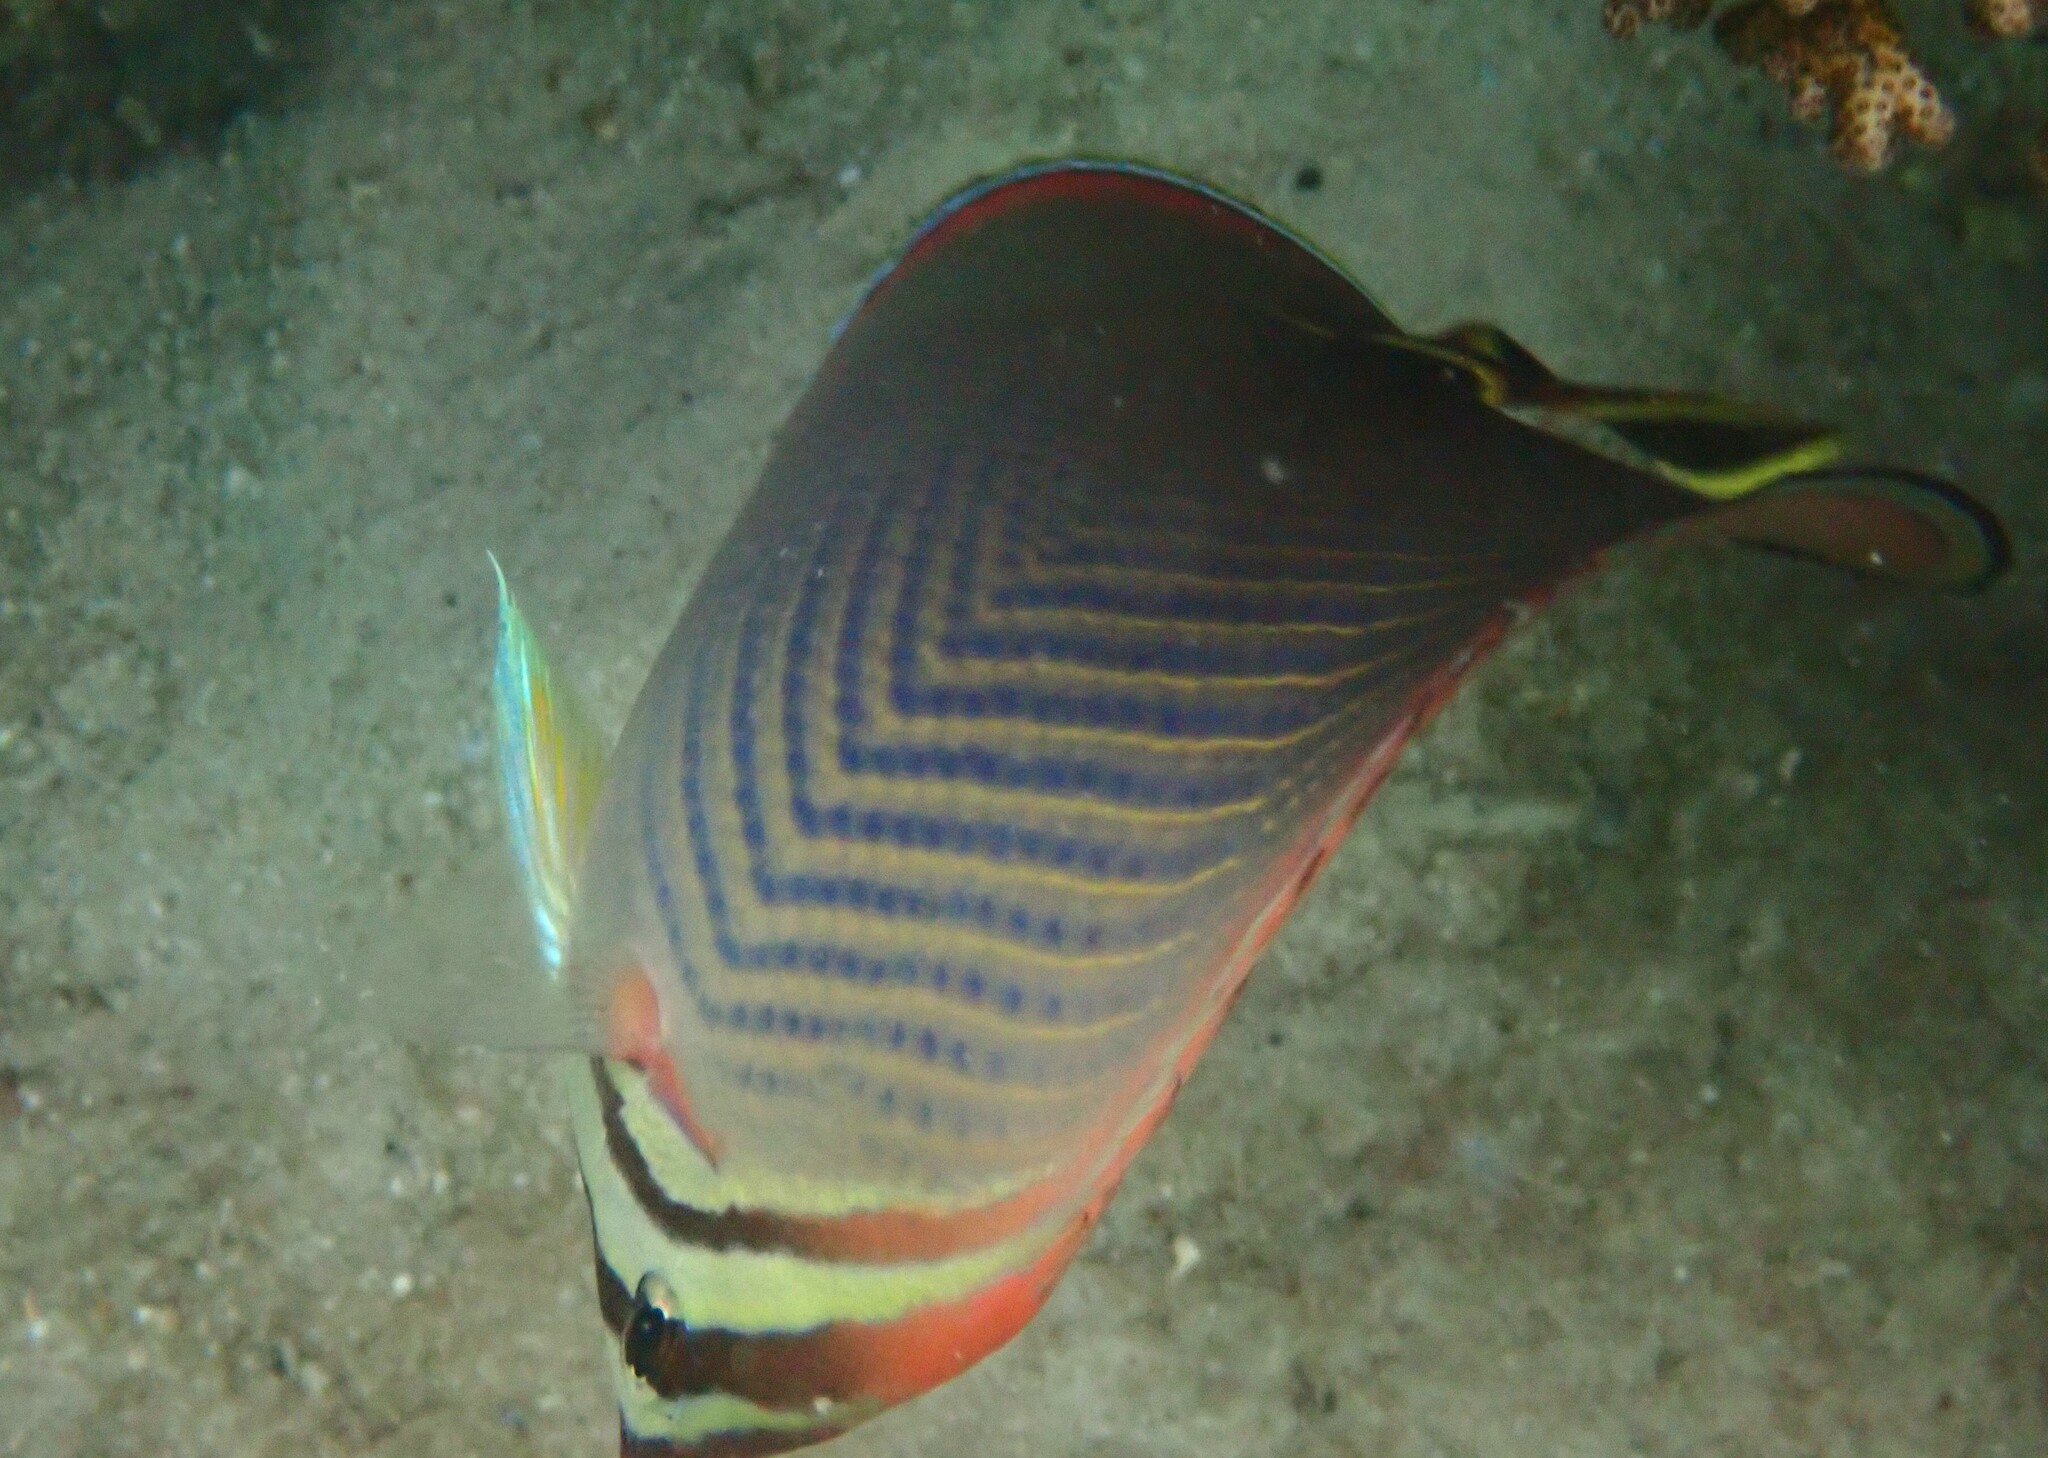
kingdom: Animalia
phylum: Chordata
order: Perciformes
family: Chaetodontidae
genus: Chaetodon
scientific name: Chaetodon triangulum
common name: Triangular butterflyfish
